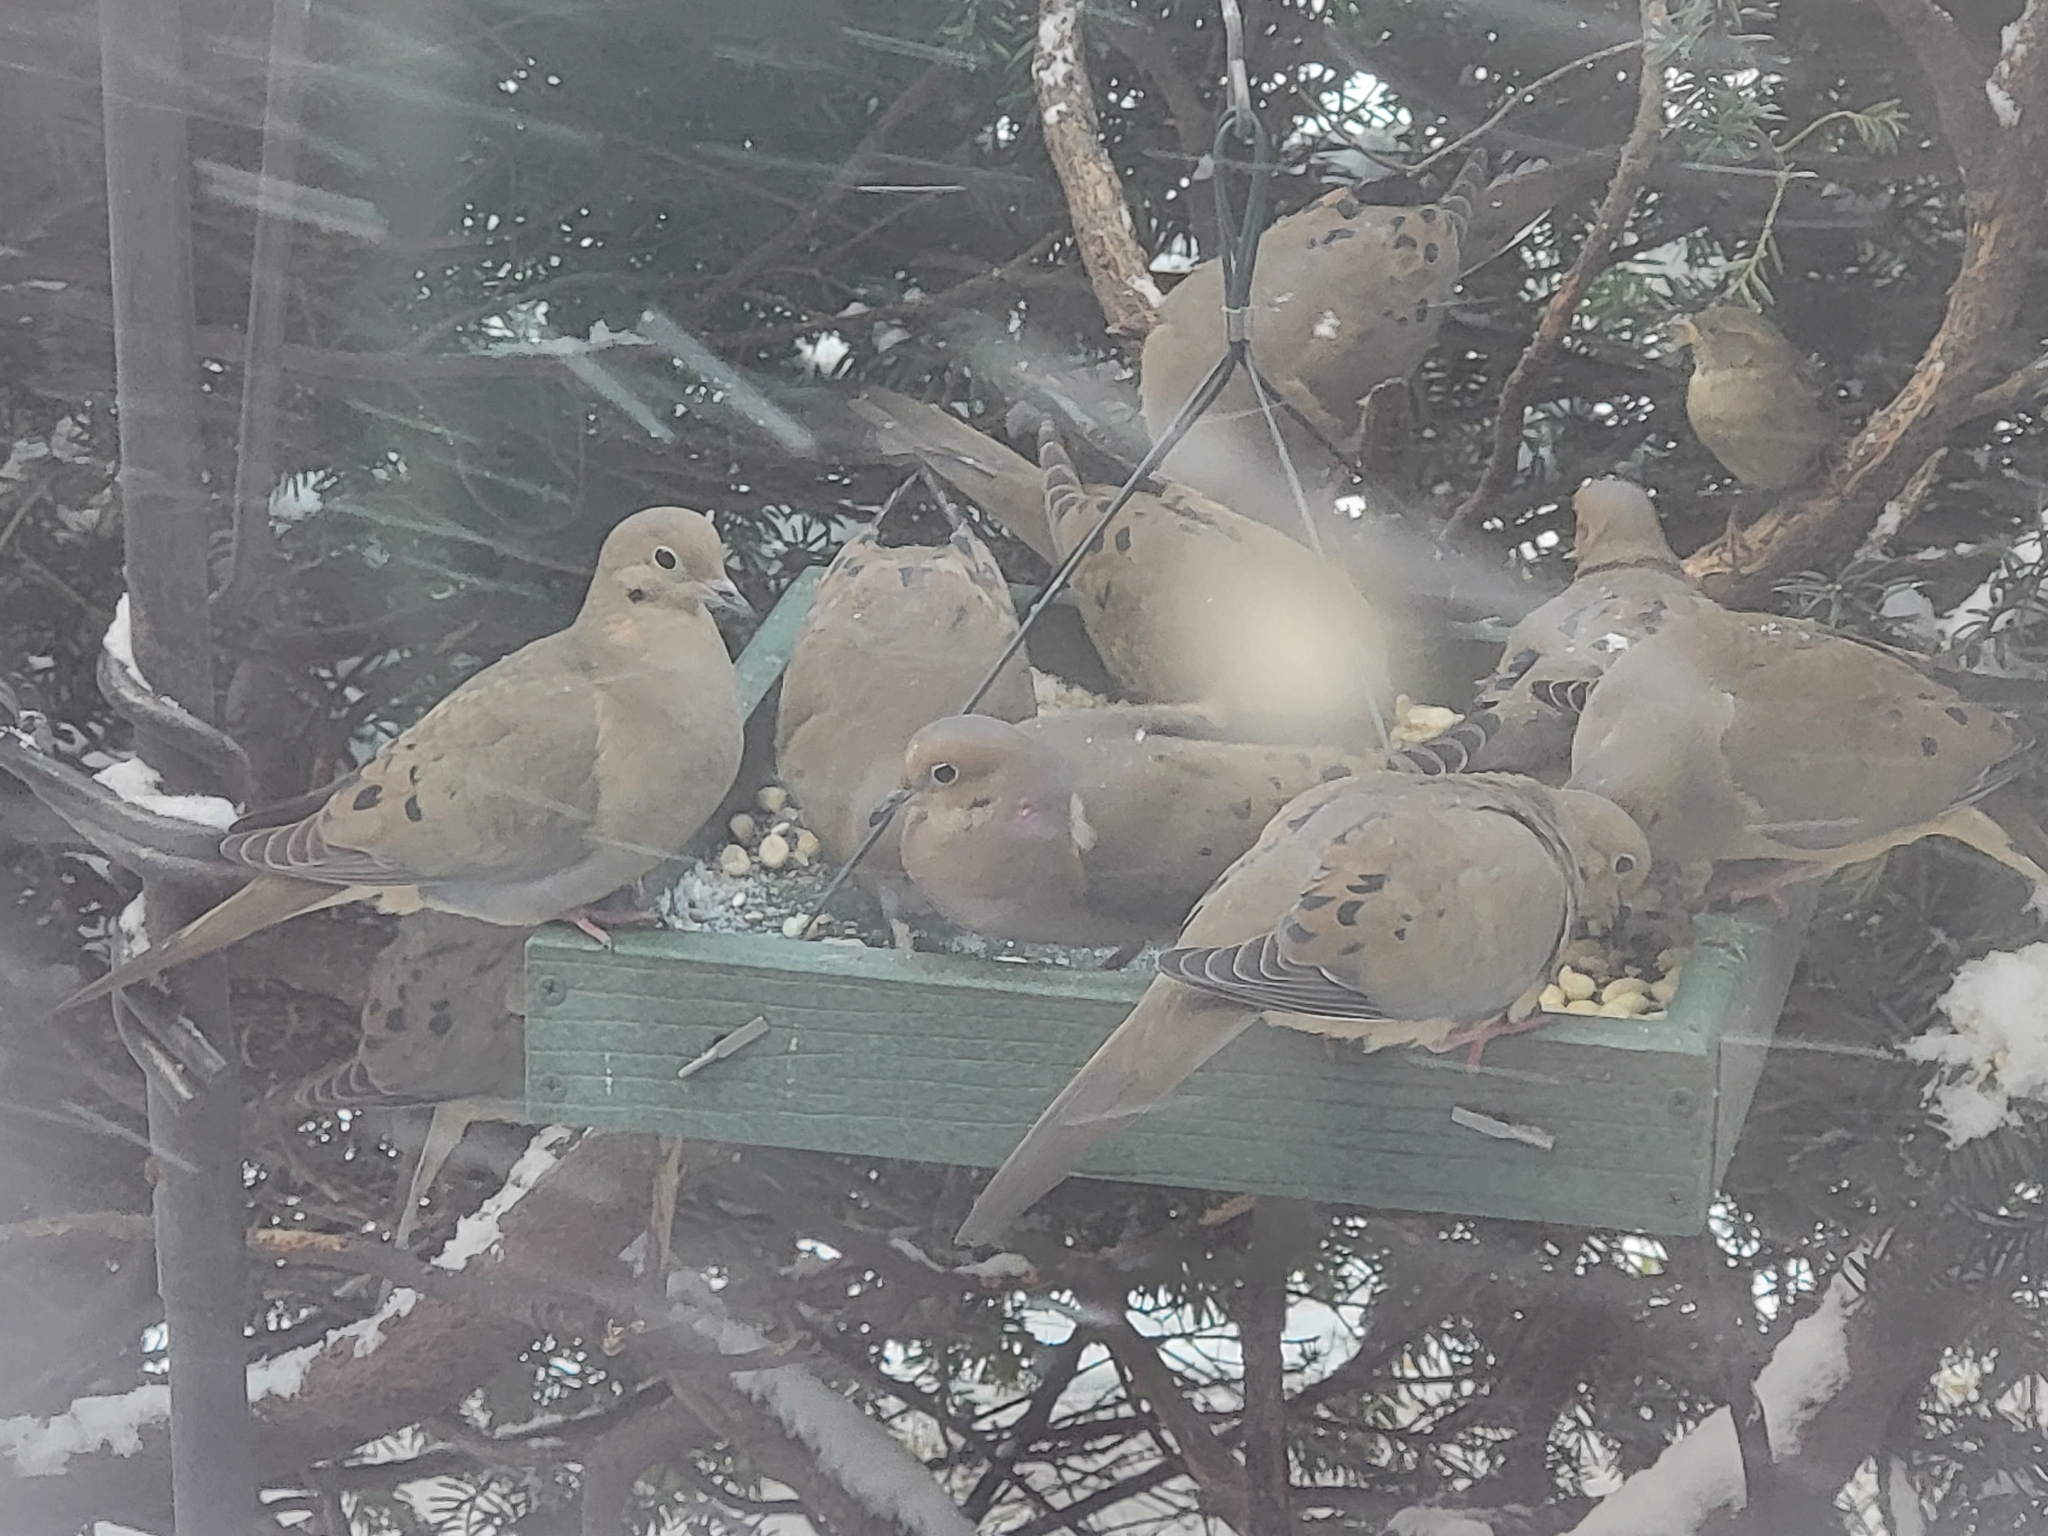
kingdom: Animalia
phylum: Chordata
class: Aves
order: Columbiformes
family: Columbidae
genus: Zenaida
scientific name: Zenaida macroura
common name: Mourning dove
